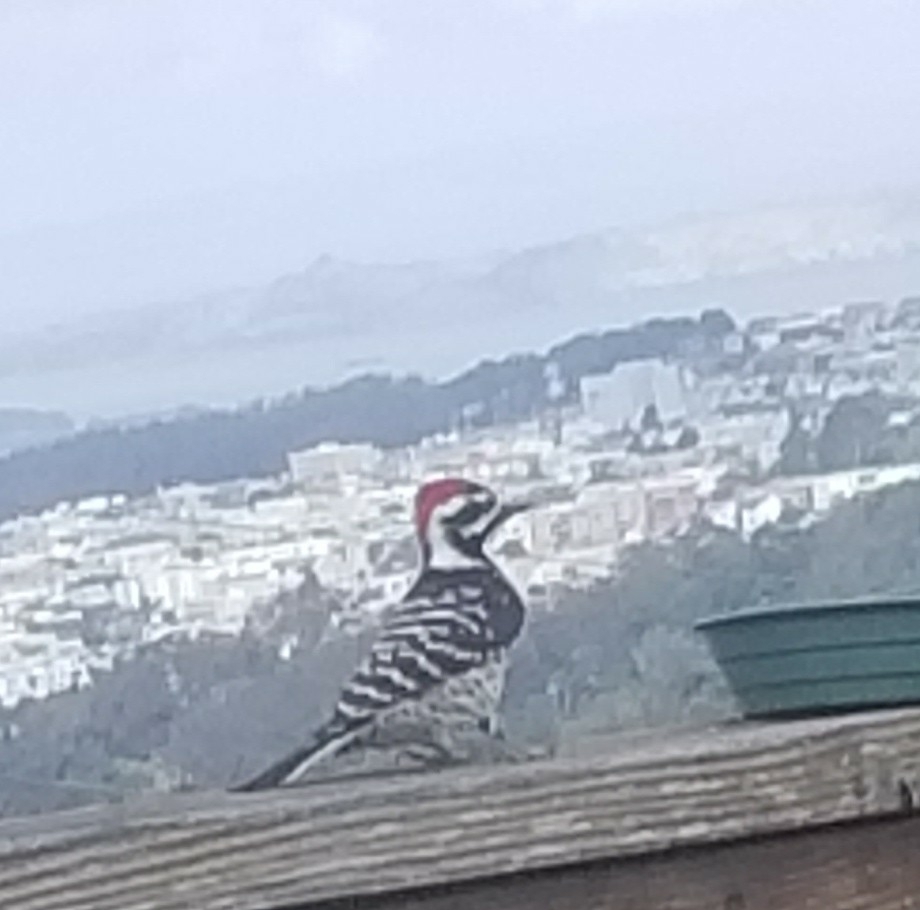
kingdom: Animalia
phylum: Chordata
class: Aves
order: Piciformes
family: Picidae
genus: Dryobates
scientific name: Dryobates nuttallii
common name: Nuttall's woodpecker
